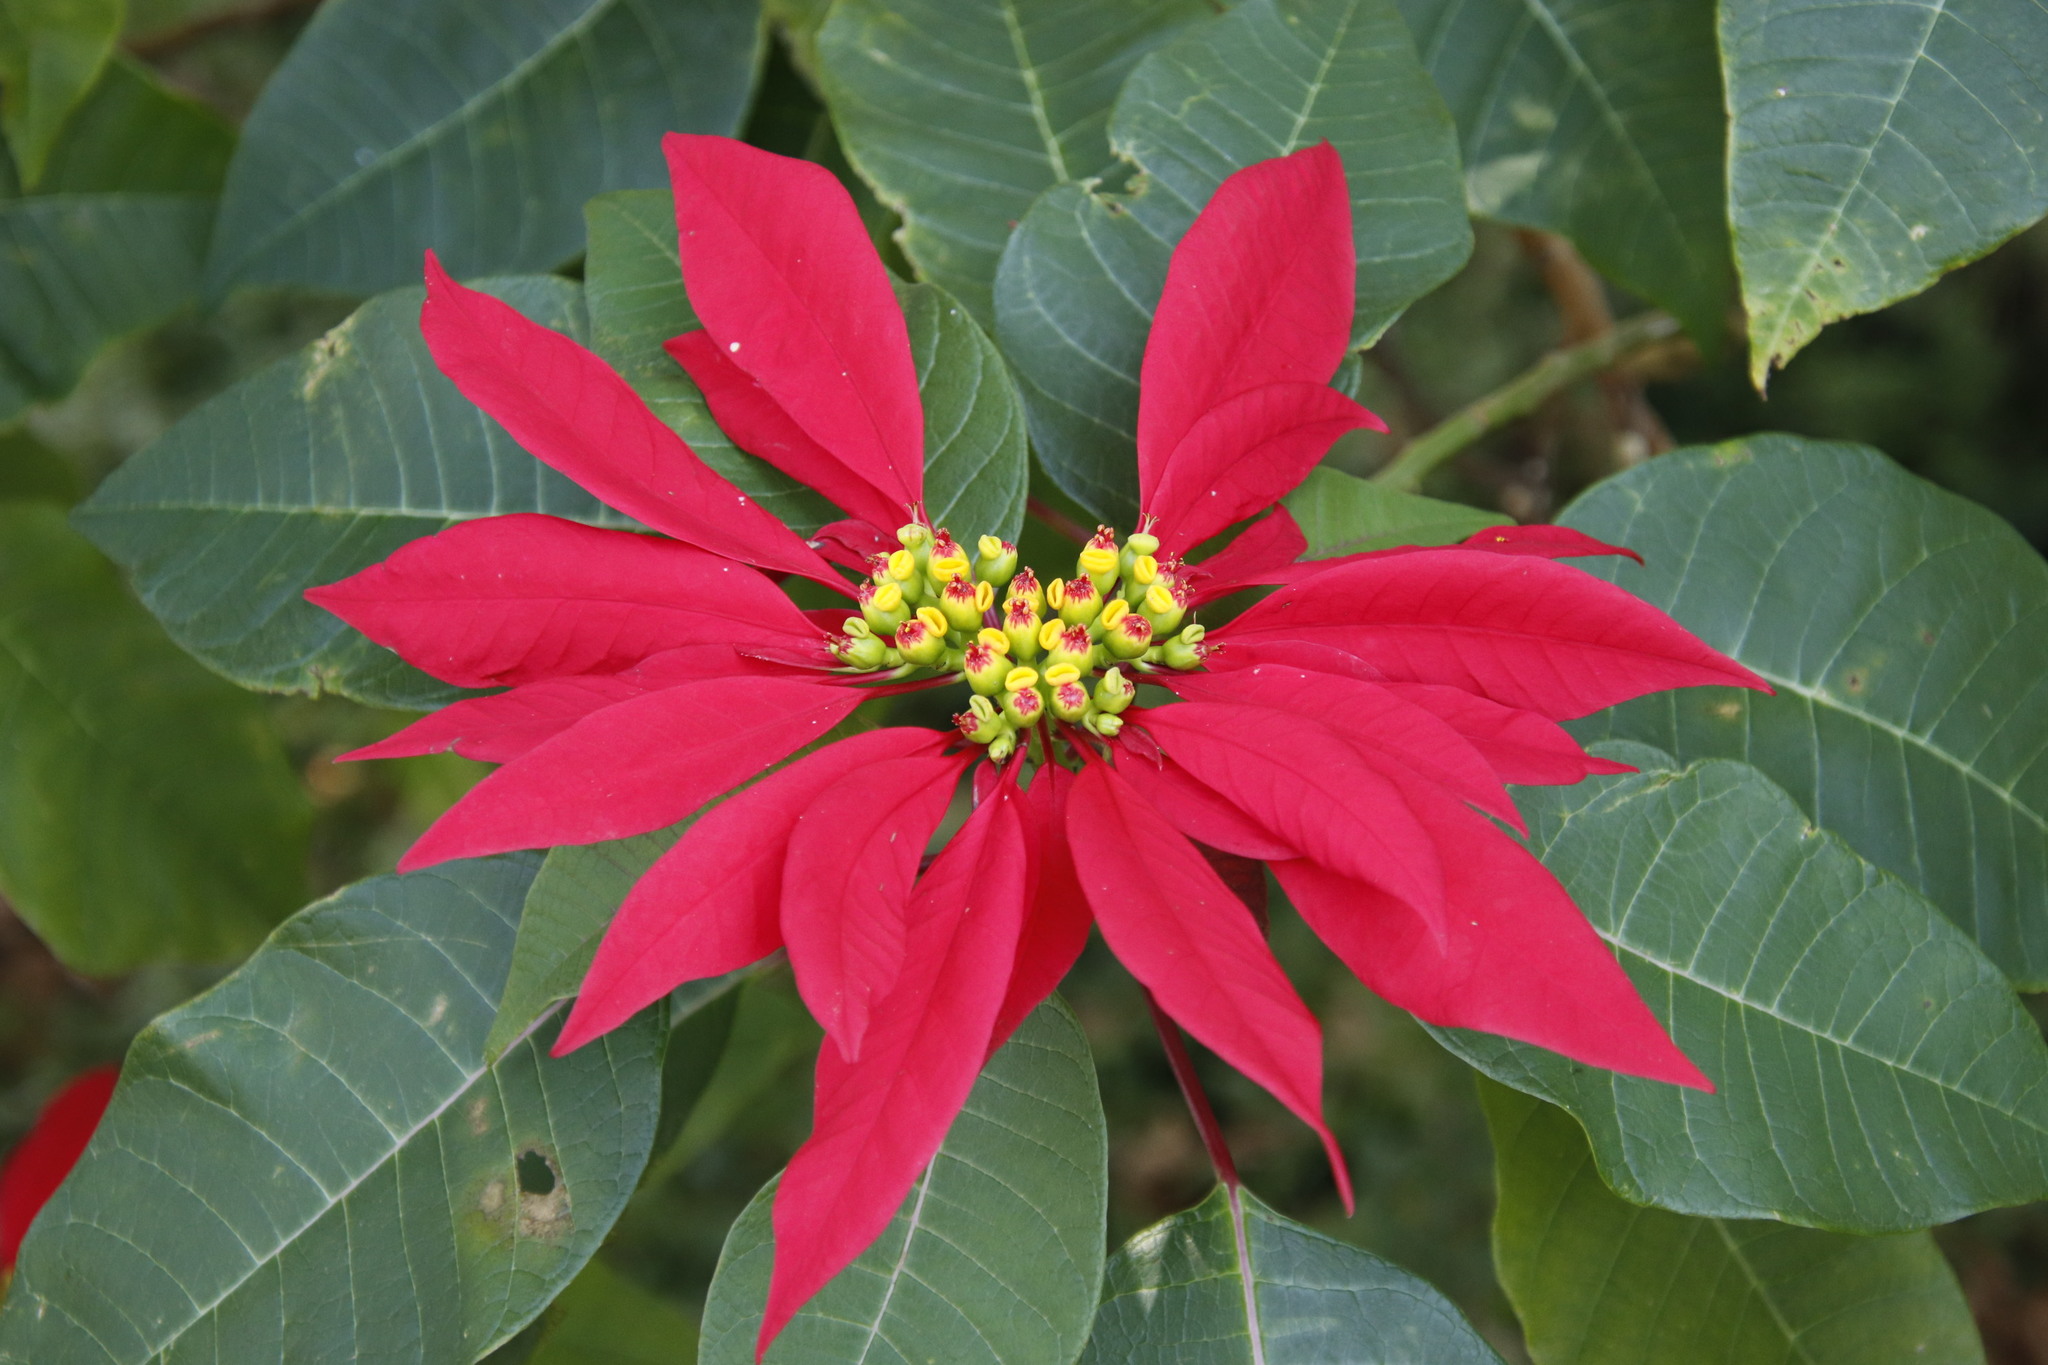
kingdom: Plantae
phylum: Tracheophyta
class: Magnoliopsida
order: Malpighiales
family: Euphorbiaceae
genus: Euphorbia
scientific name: Euphorbia pulcherrima
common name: Christmas-flower
